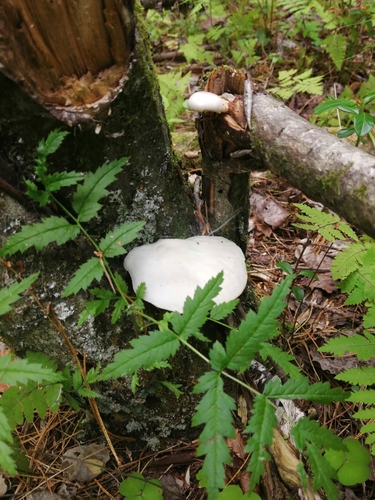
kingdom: Fungi
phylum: Basidiomycota
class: Agaricomycetes
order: Agaricales
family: Pleurotaceae
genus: Pleurotus
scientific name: Pleurotus
